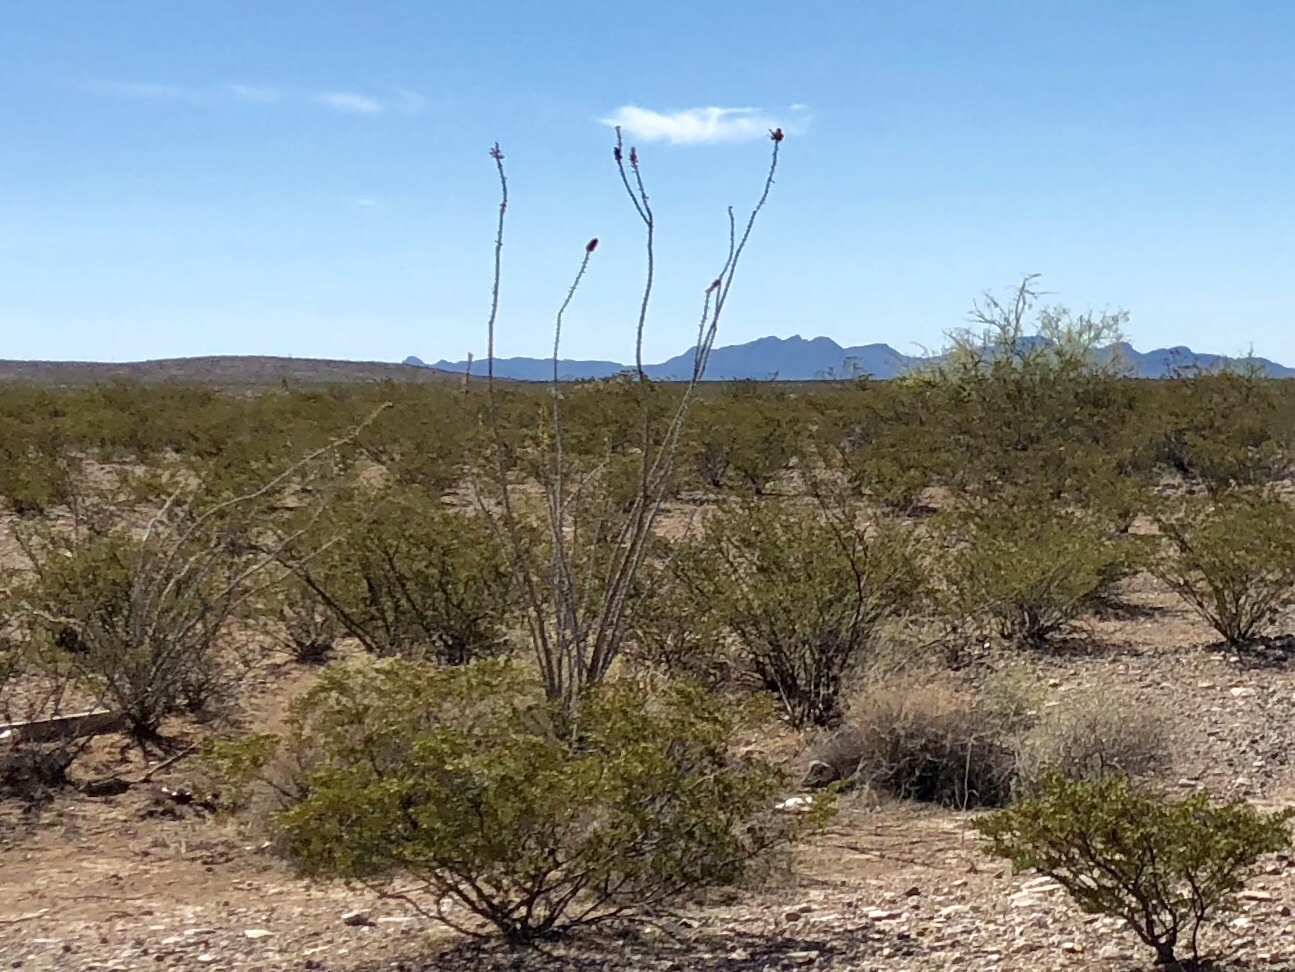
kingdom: Plantae
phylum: Tracheophyta
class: Magnoliopsida
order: Ericales
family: Fouquieriaceae
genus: Fouquieria
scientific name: Fouquieria splendens
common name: Vine-cactus
